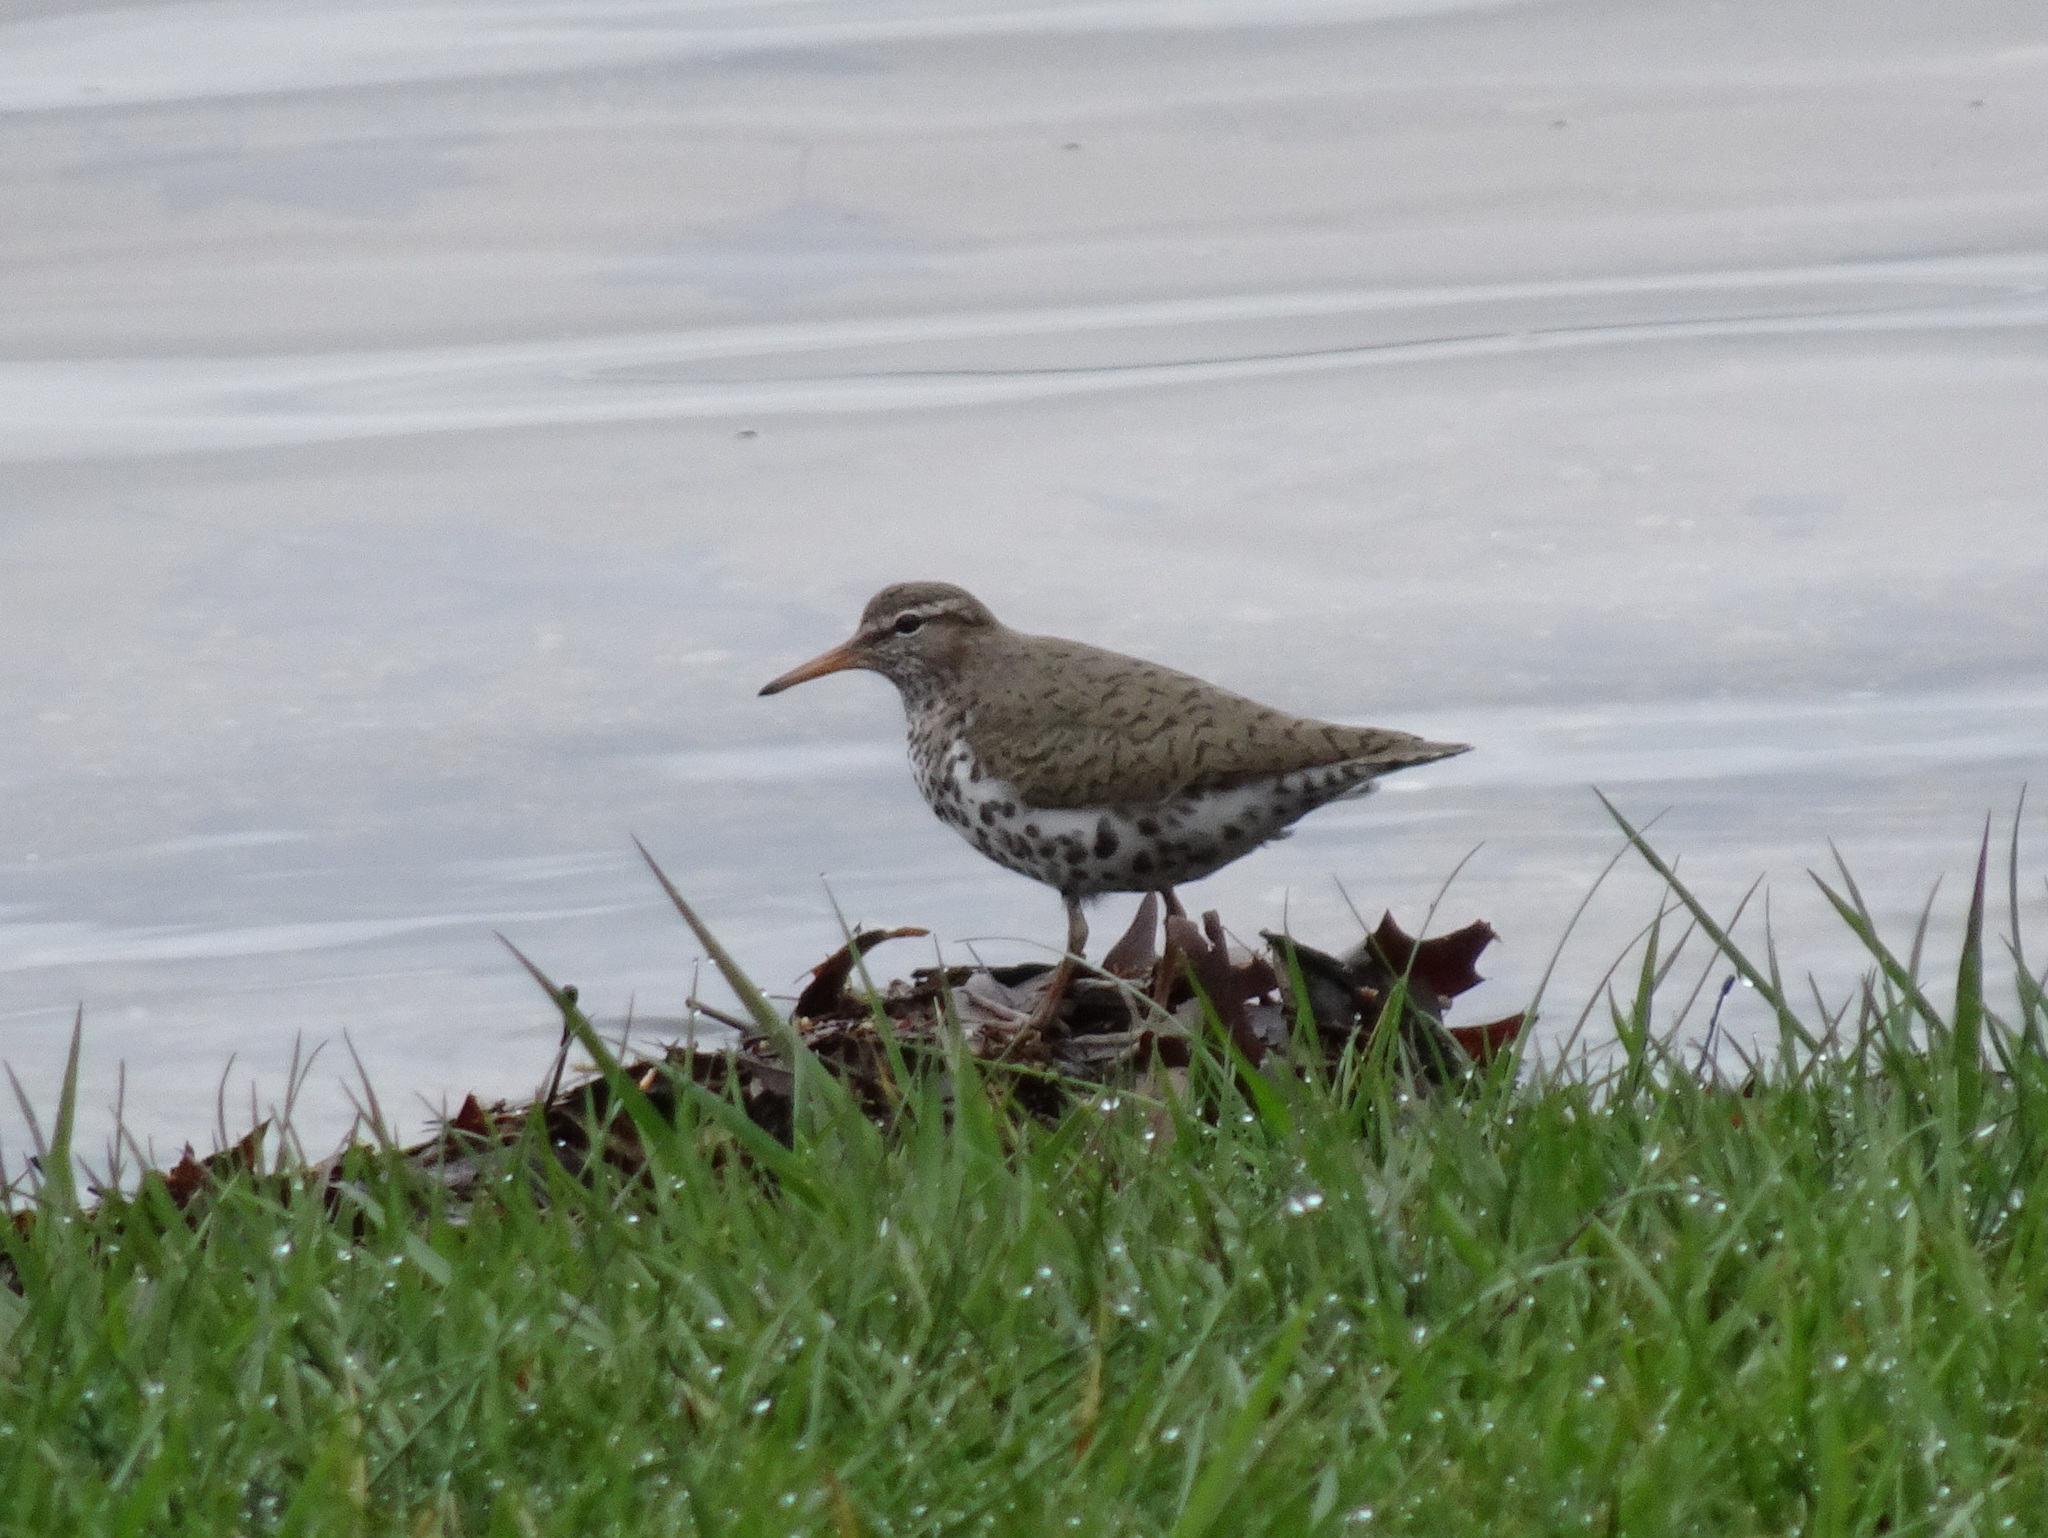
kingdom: Animalia
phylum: Chordata
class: Aves
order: Charadriiformes
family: Scolopacidae
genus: Actitis
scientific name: Actitis macularius
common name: Spotted sandpiper
